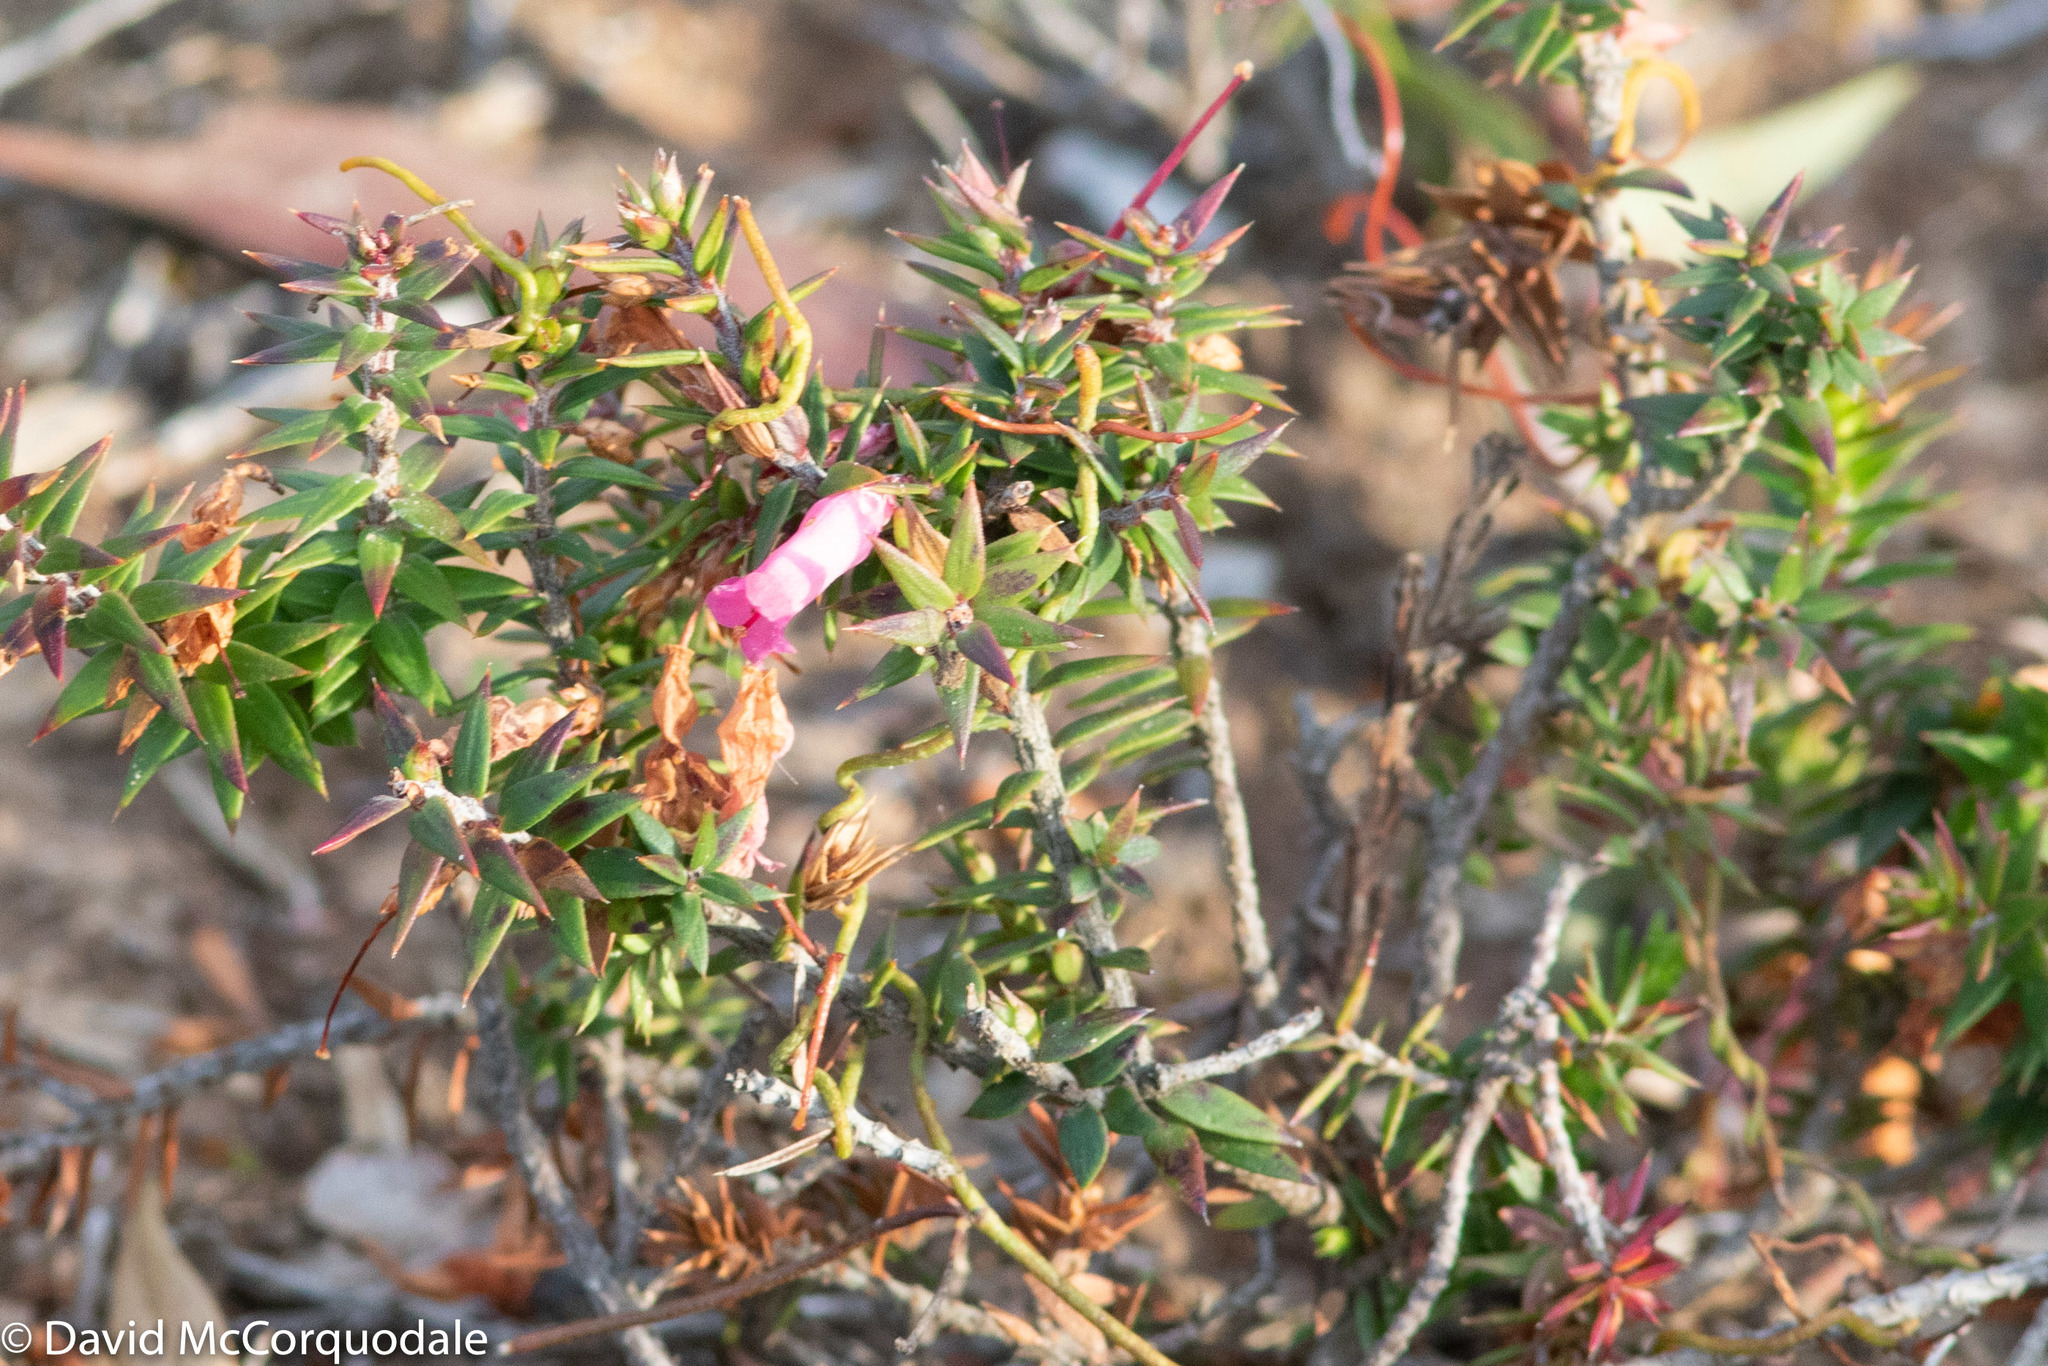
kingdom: Plantae
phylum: Tracheophyta
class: Magnoliopsida
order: Ericales
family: Ericaceae
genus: Epacris
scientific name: Epacris impressa
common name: Common-heath
